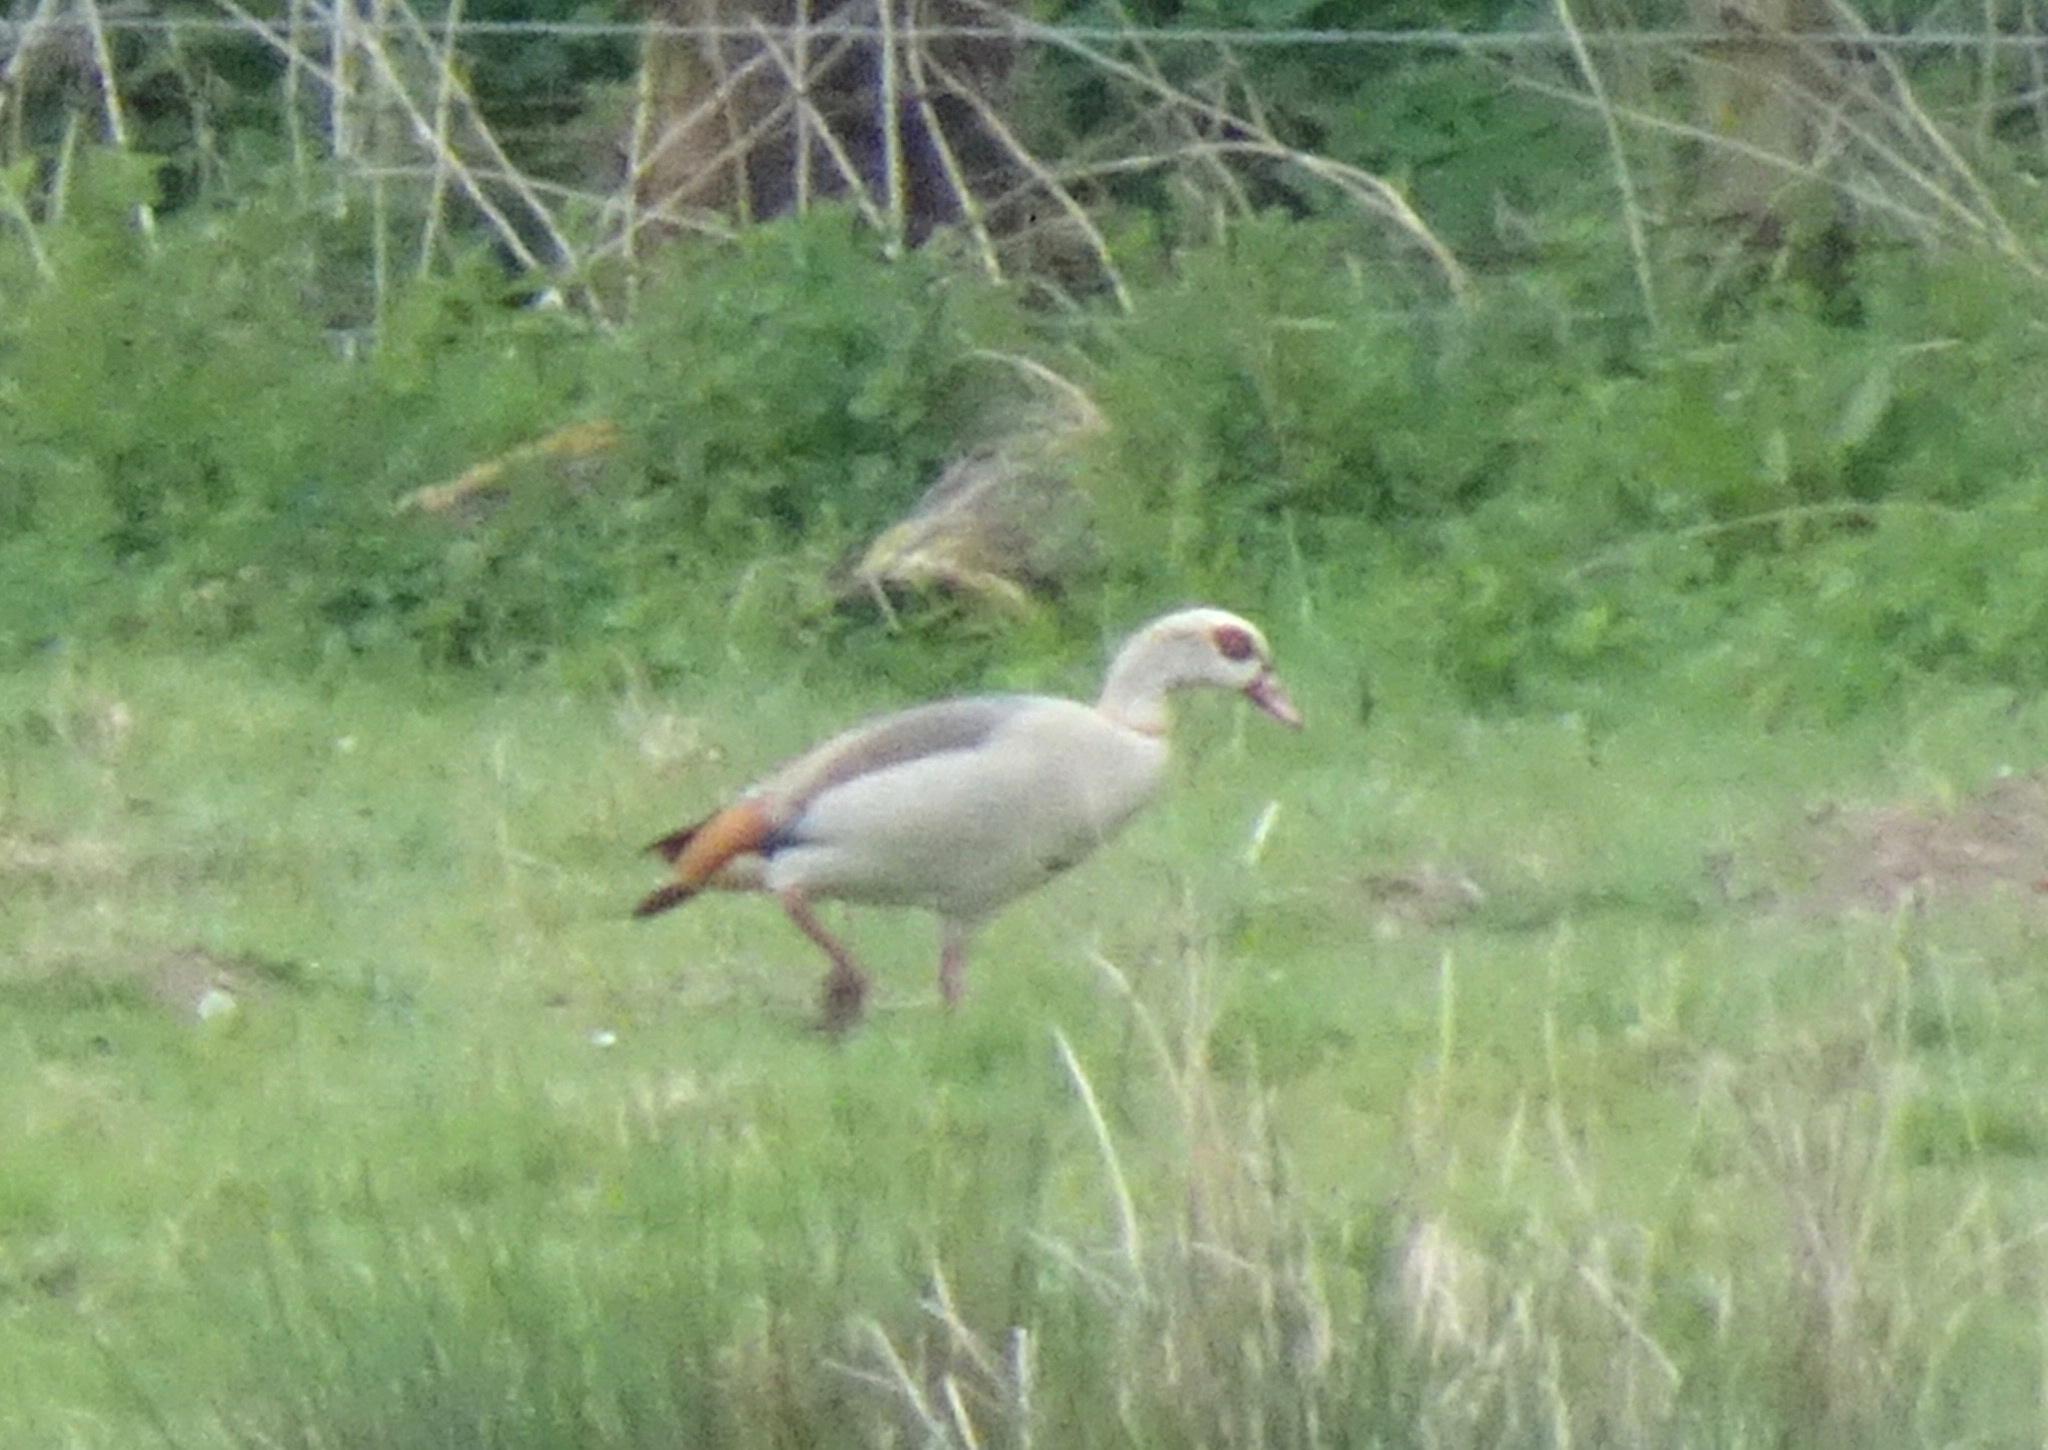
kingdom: Animalia
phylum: Chordata
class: Aves
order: Anseriformes
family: Anatidae
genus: Alopochen
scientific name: Alopochen aegyptiaca
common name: Egyptian goose
